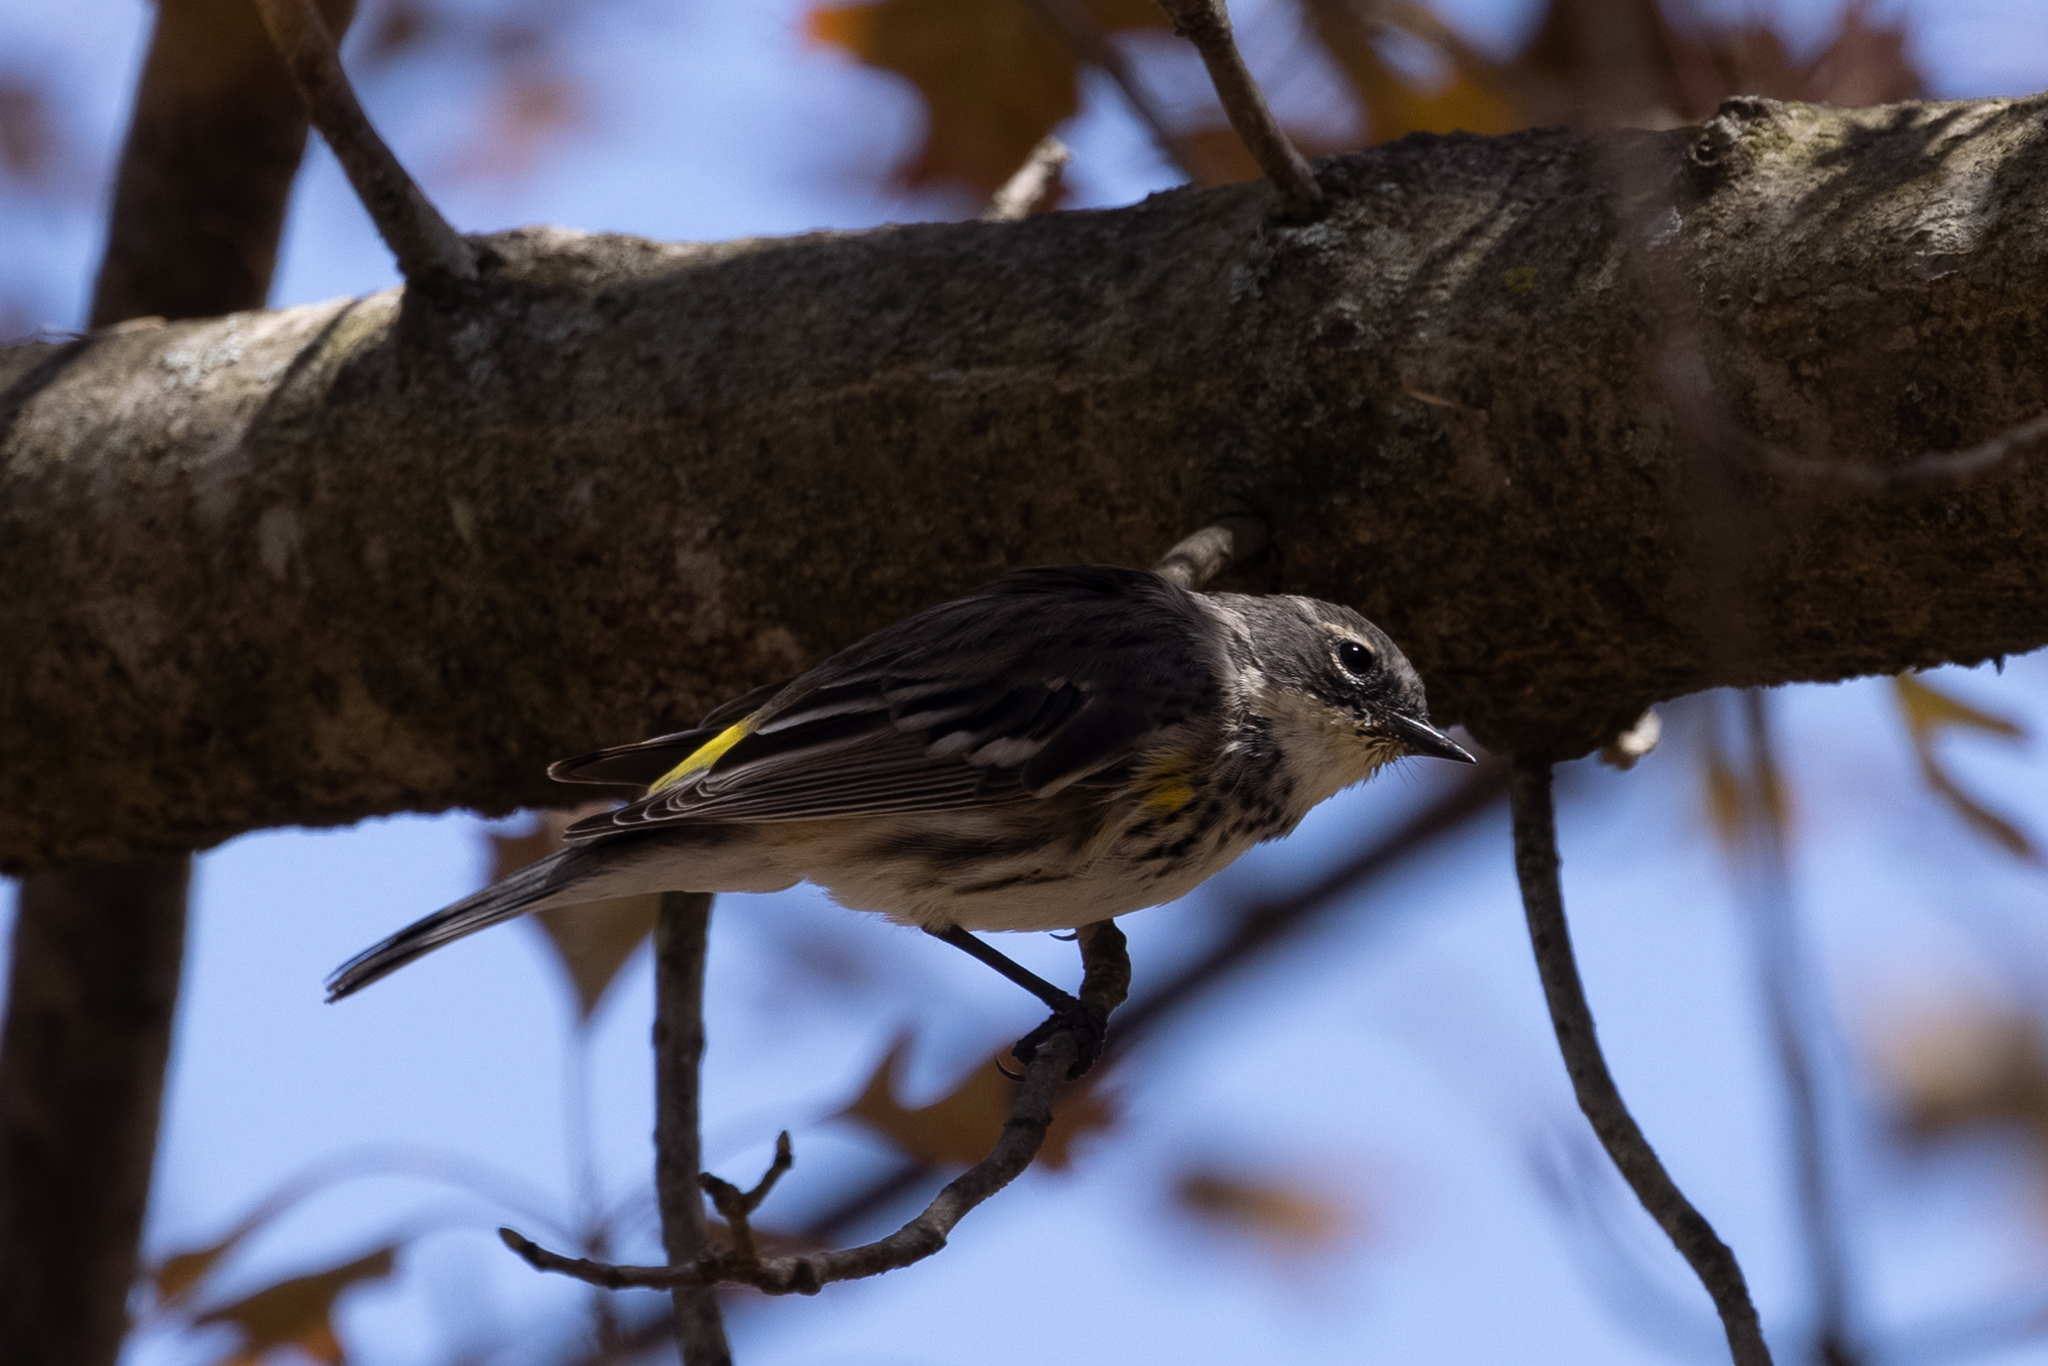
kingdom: Animalia
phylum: Chordata
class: Aves
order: Passeriformes
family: Parulidae
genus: Setophaga
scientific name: Setophaga coronata
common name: Myrtle warbler
